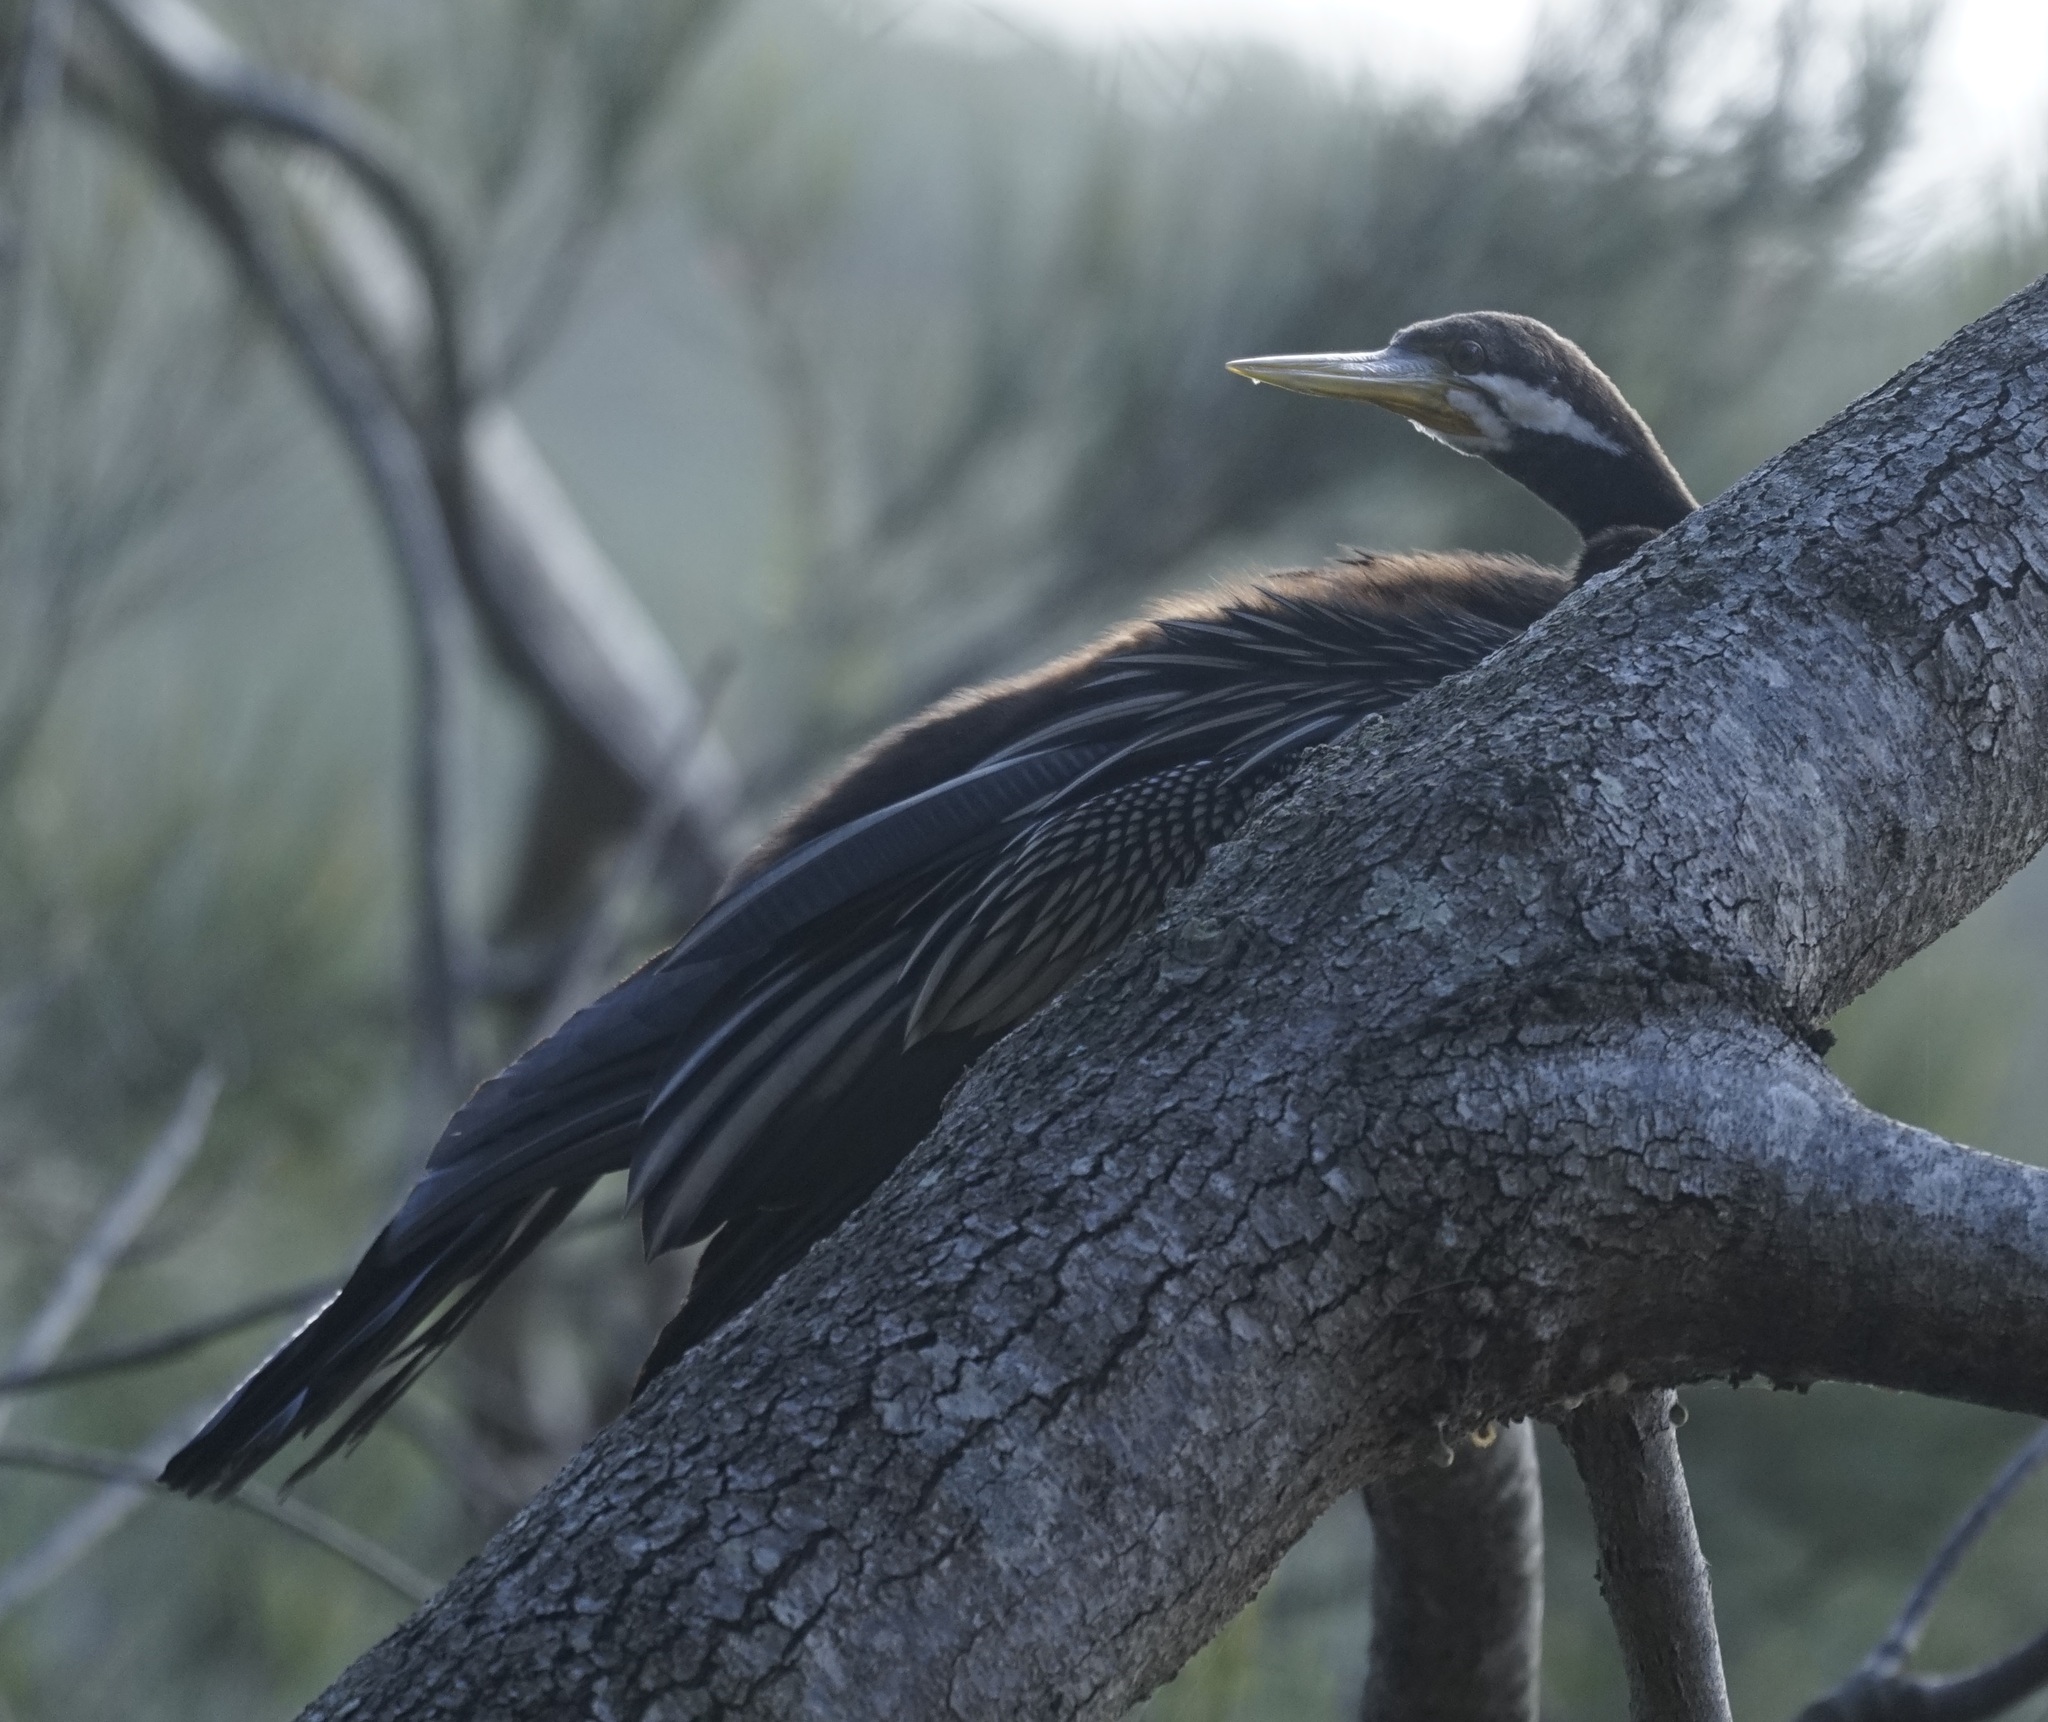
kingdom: Animalia
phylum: Chordata
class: Aves
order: Suliformes
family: Anhingidae
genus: Anhinga
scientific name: Anhinga novaehollandiae
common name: Australasian darter
